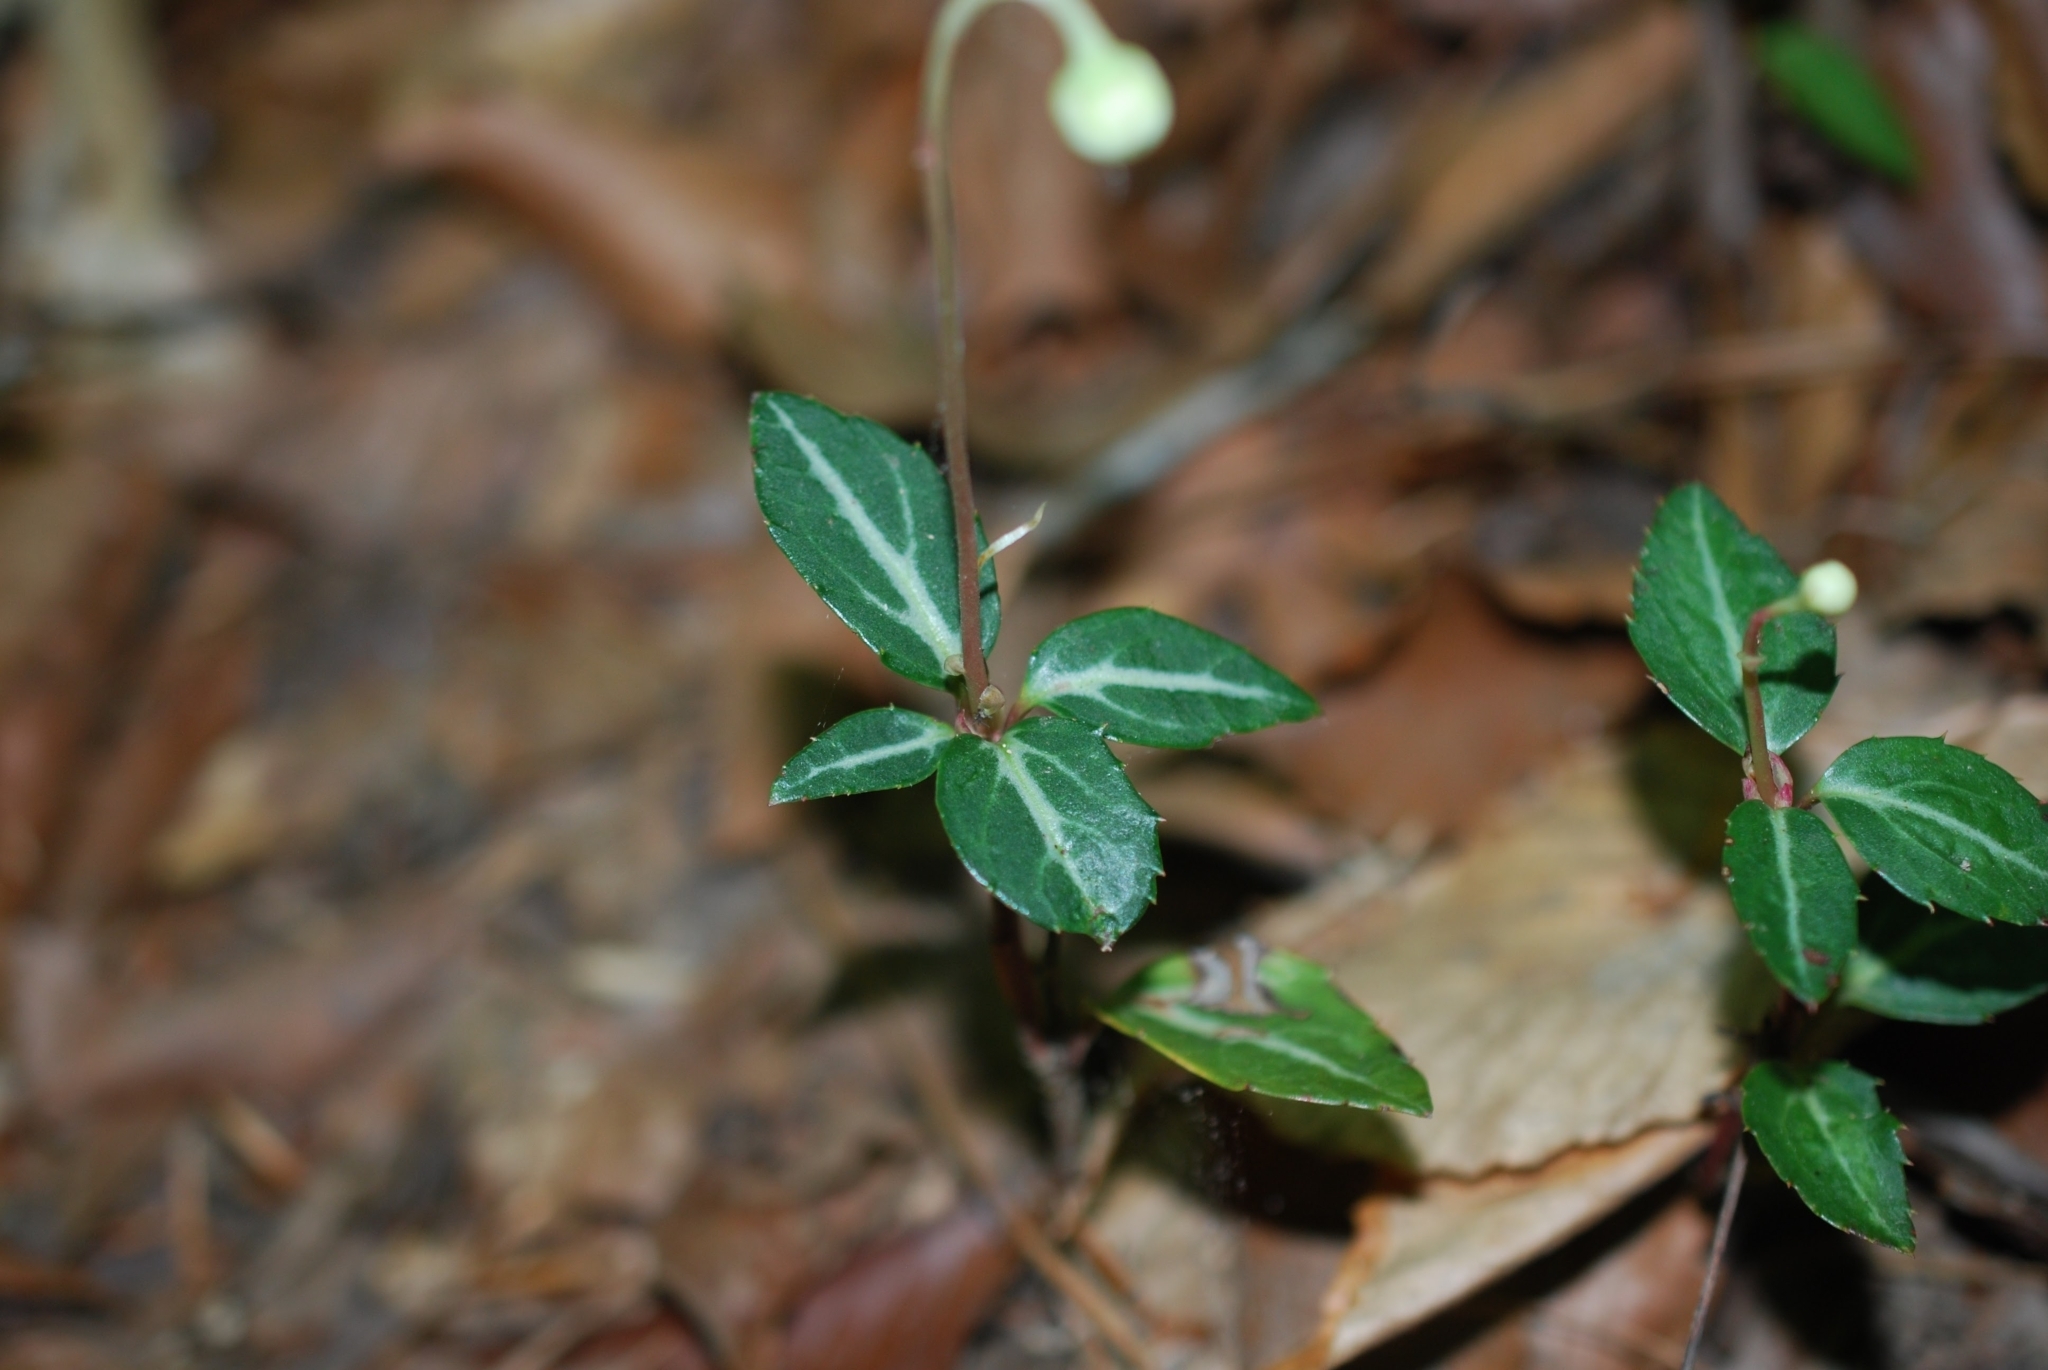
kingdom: Plantae
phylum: Tracheophyta
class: Magnoliopsida
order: Ericales
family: Ericaceae
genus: Chimaphila
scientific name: Chimaphila maculata
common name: Spotted pipsissewa
